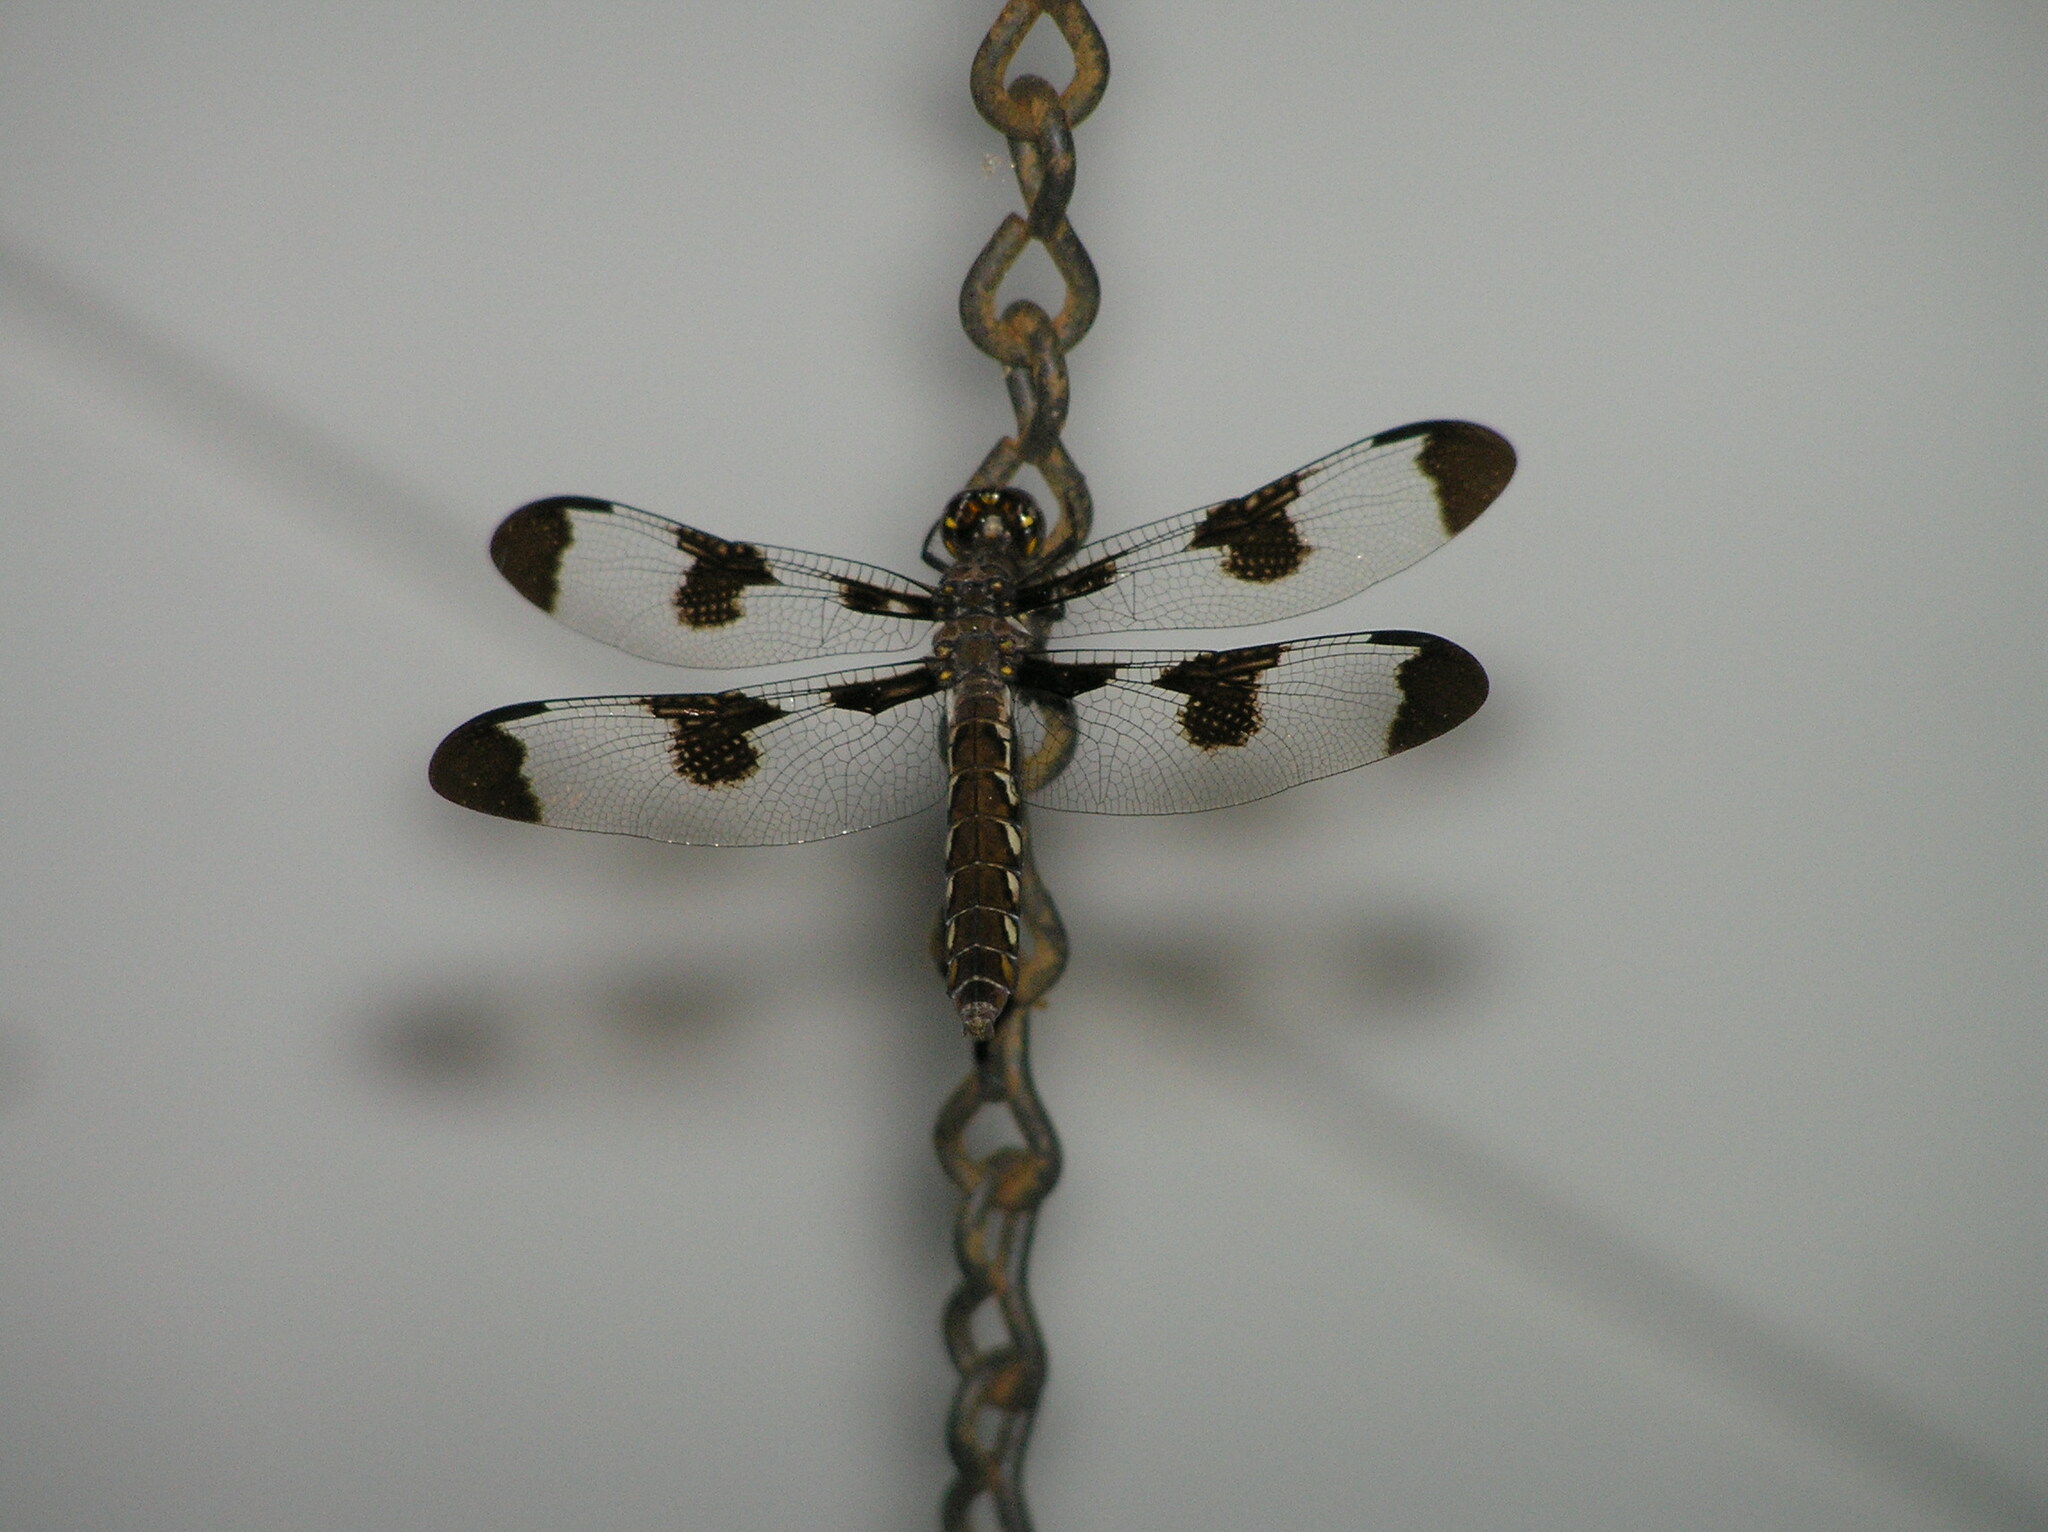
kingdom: Animalia
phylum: Arthropoda
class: Insecta
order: Odonata
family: Libellulidae
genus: Plathemis
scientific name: Plathemis lydia
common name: Common whitetail
